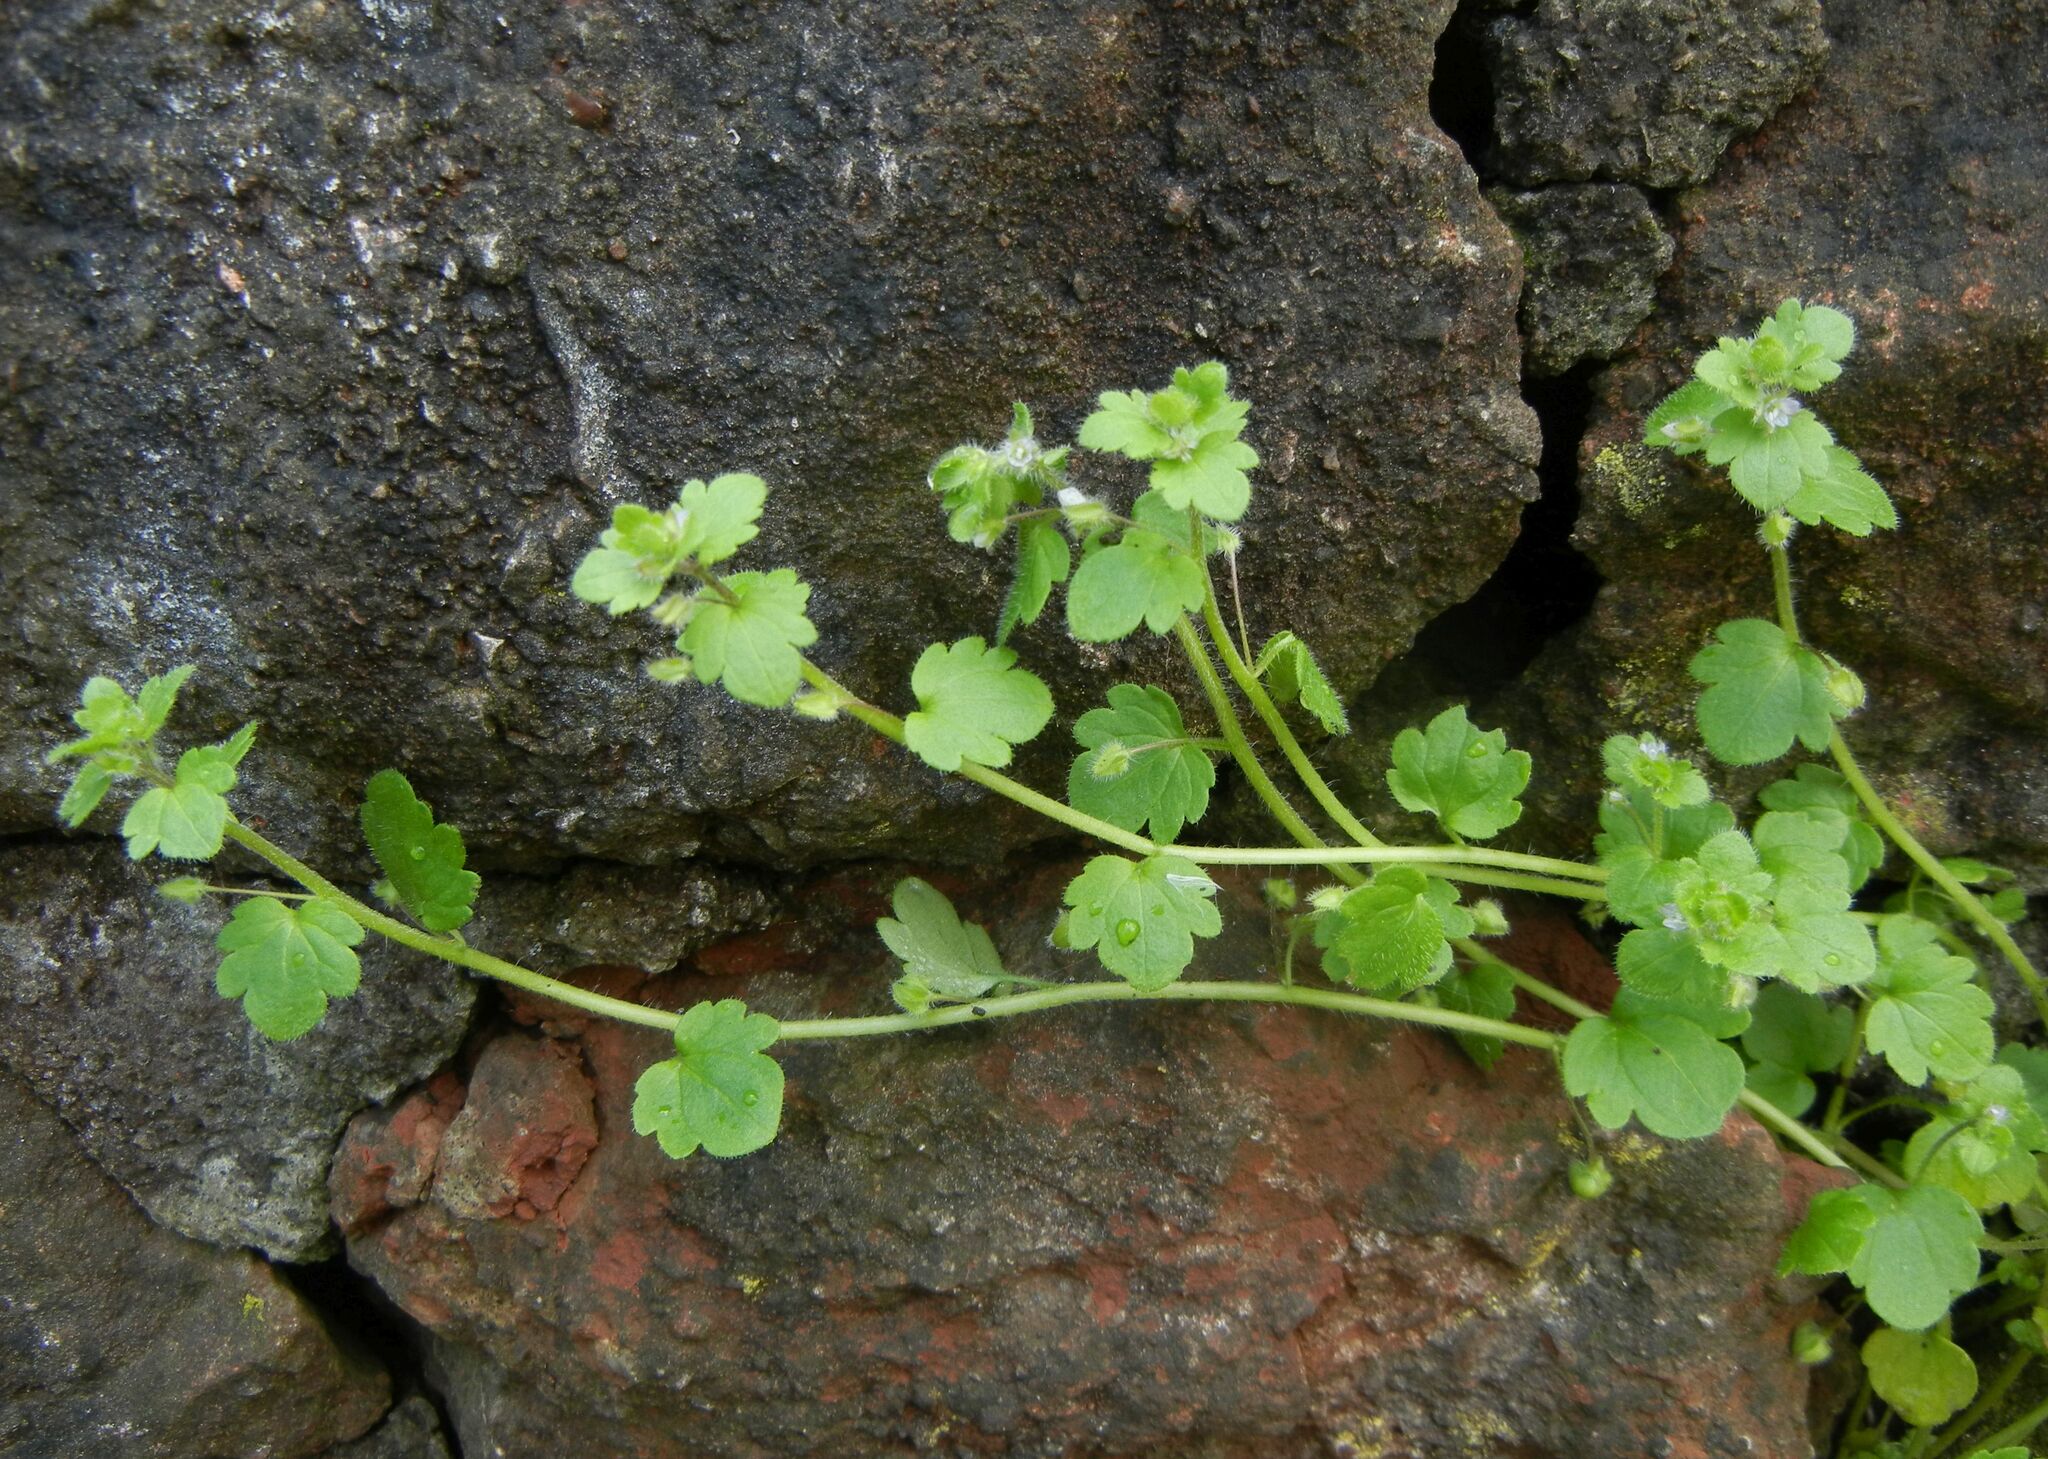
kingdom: Plantae
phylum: Tracheophyta
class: Magnoliopsida
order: Lamiales
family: Plantaginaceae
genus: Veronica
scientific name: Veronica sublobata
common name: False ivy-leaved speedwell
